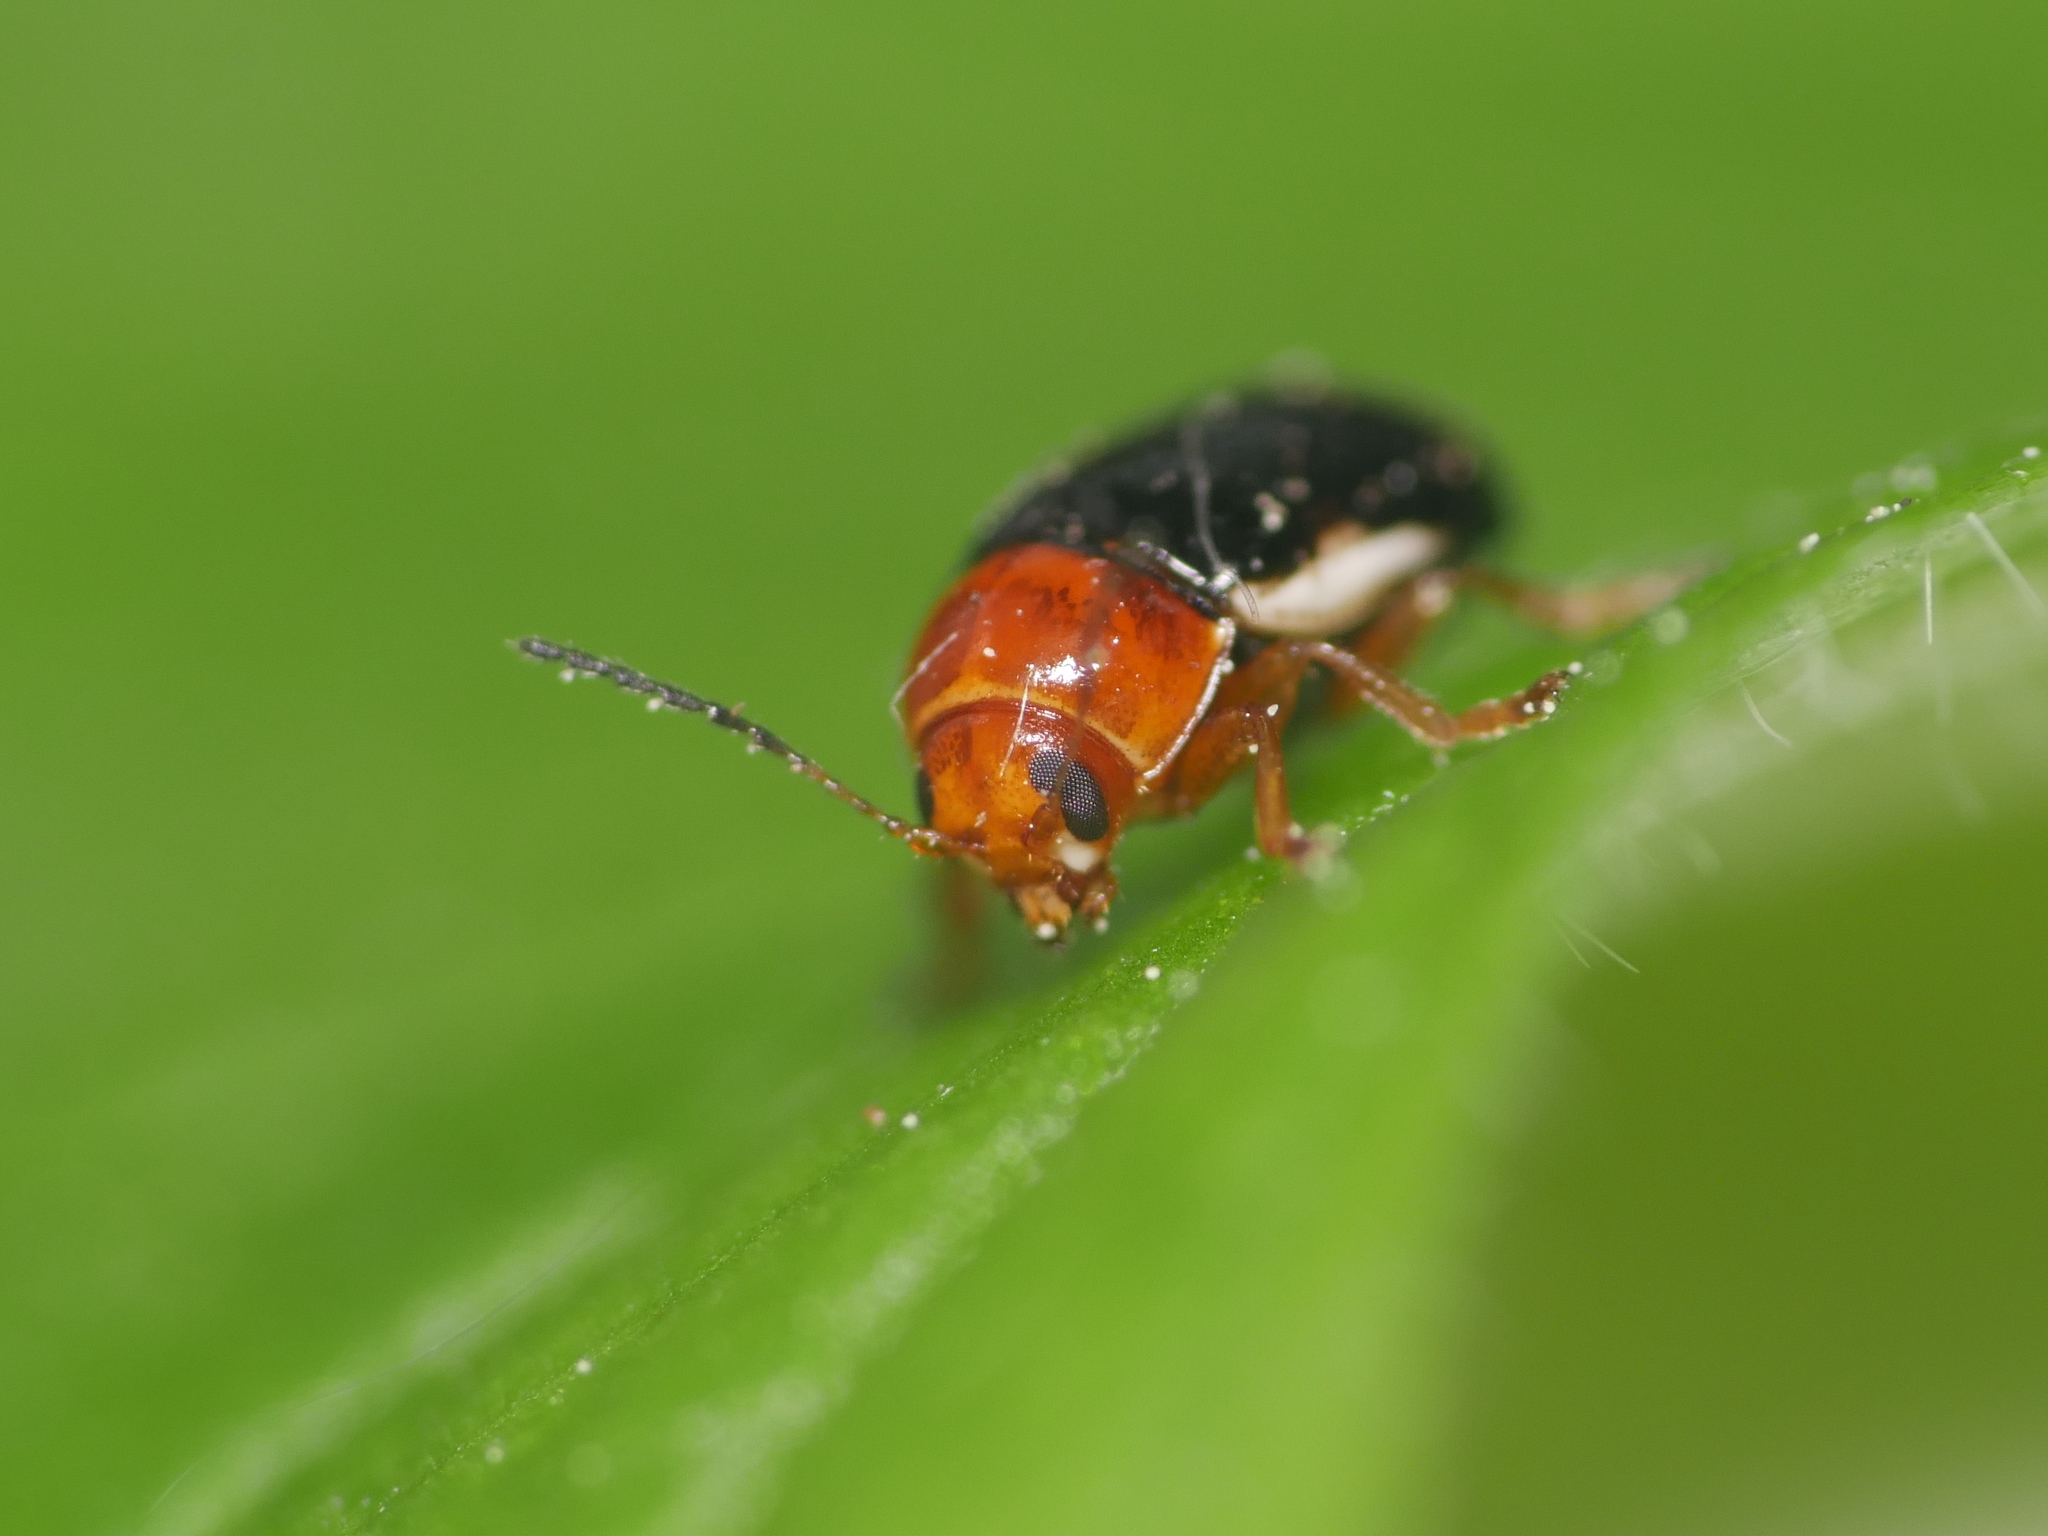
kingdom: Animalia
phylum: Arthropoda
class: Insecta
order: Coleoptera
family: Chrysomelidae
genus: Cryptocephalus
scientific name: Cryptocephalus rufipes
